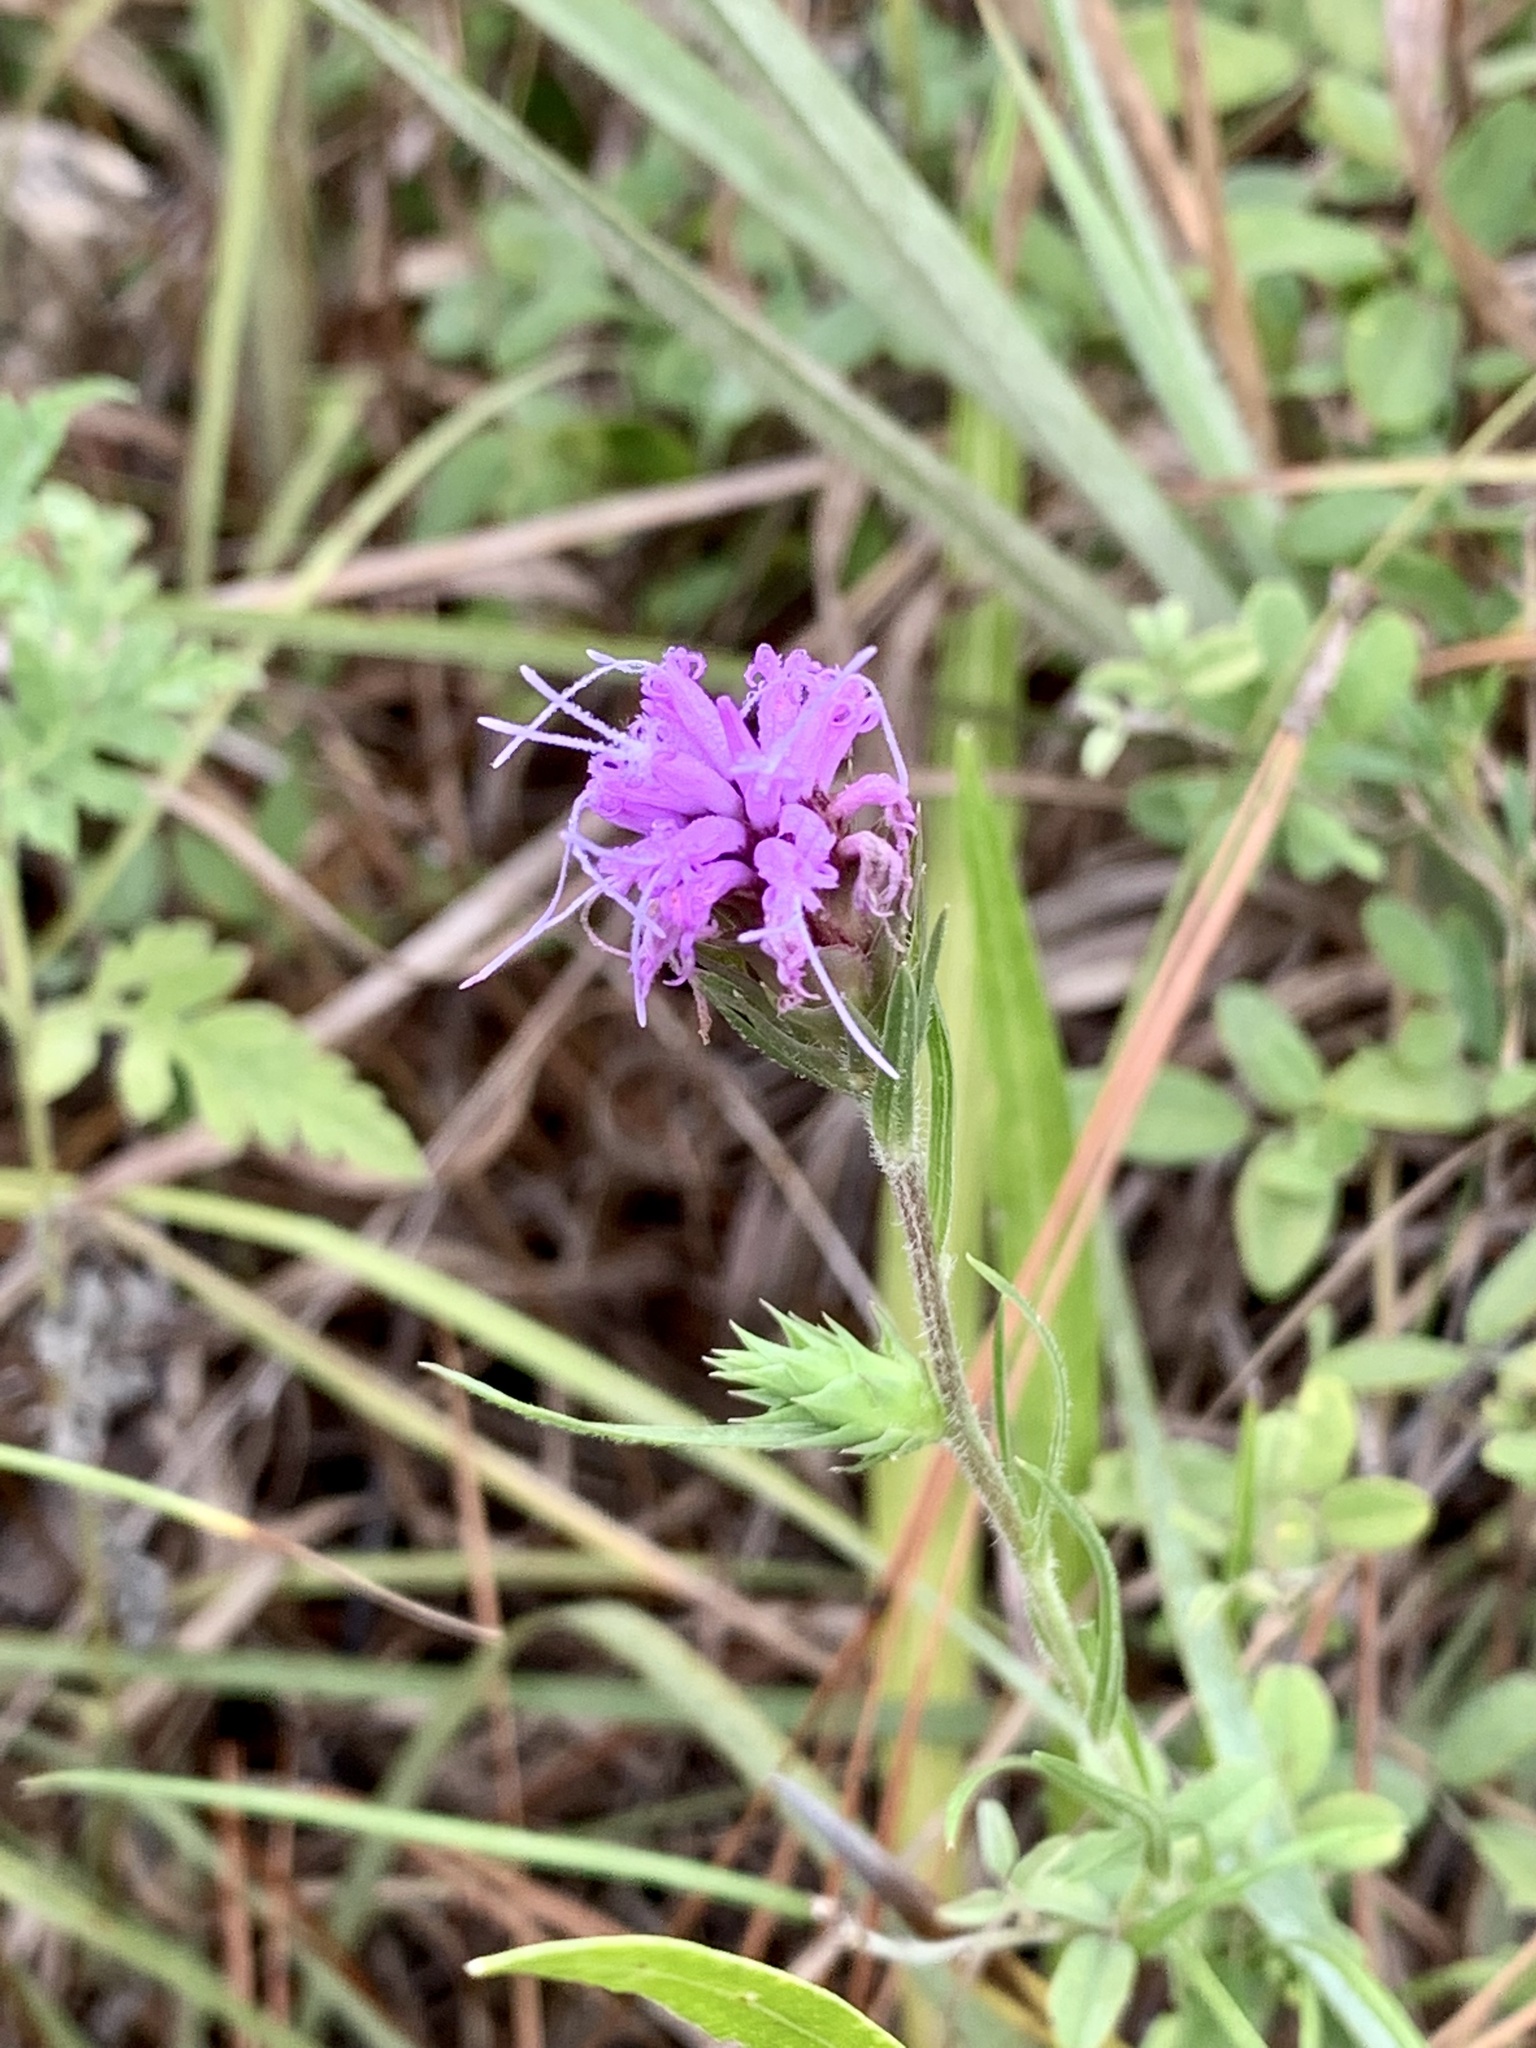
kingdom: Plantae
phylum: Tracheophyta
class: Magnoliopsida
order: Asterales
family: Asteraceae
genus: Liatris
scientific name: Liatris squarrosa
